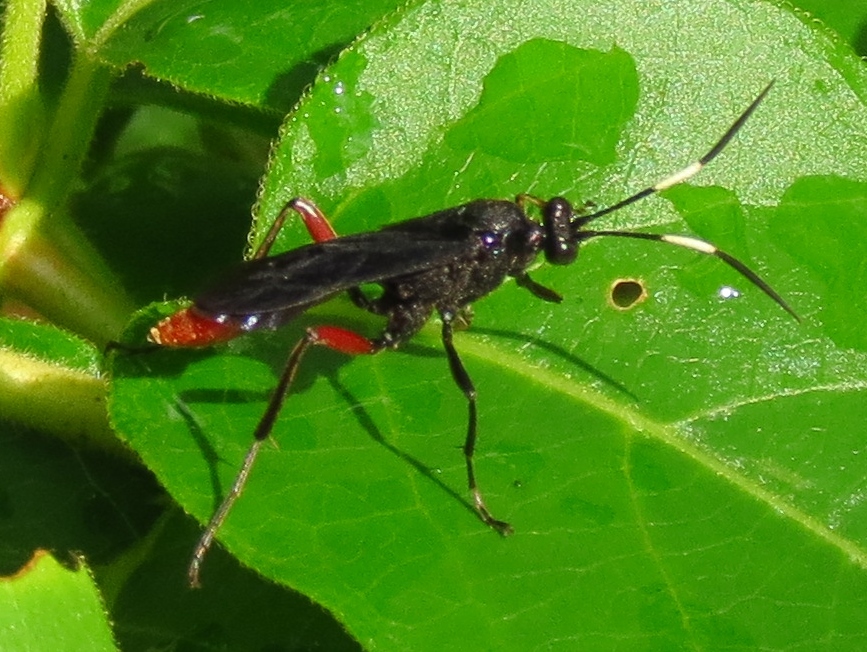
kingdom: Animalia
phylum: Arthropoda
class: Insecta
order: Hymenoptera
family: Ichneumonidae
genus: Limonethe
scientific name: Limonethe maurator
